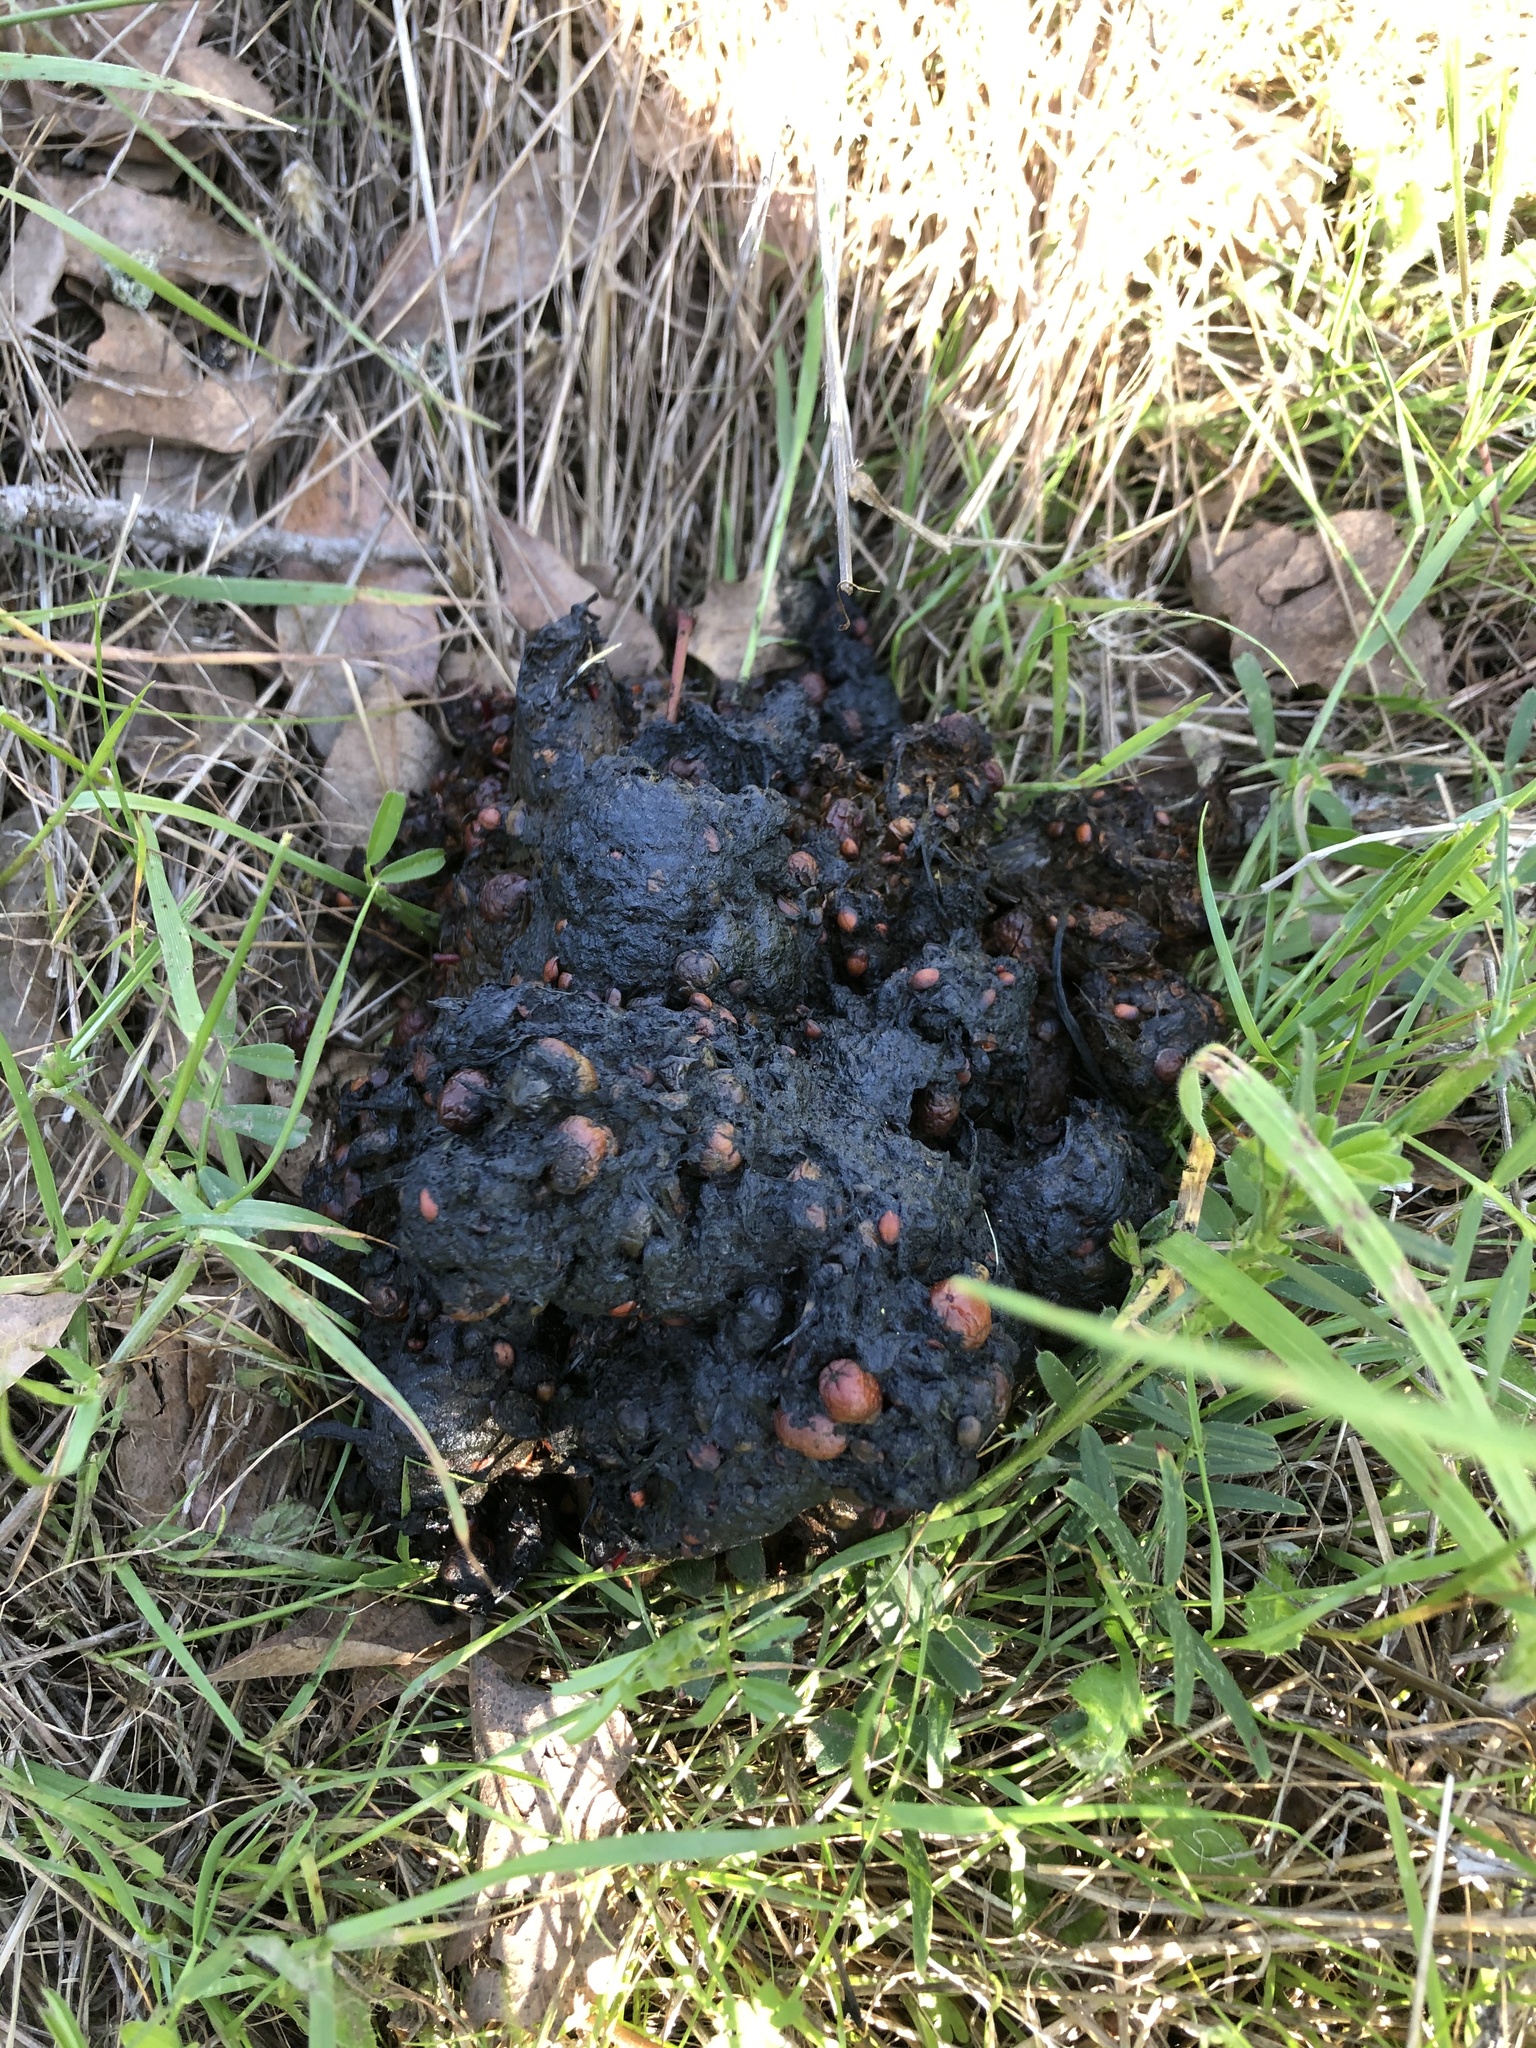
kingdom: Animalia
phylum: Chordata
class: Mammalia
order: Carnivora
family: Ursidae
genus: Ursus
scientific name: Ursus americanus
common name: American black bear
